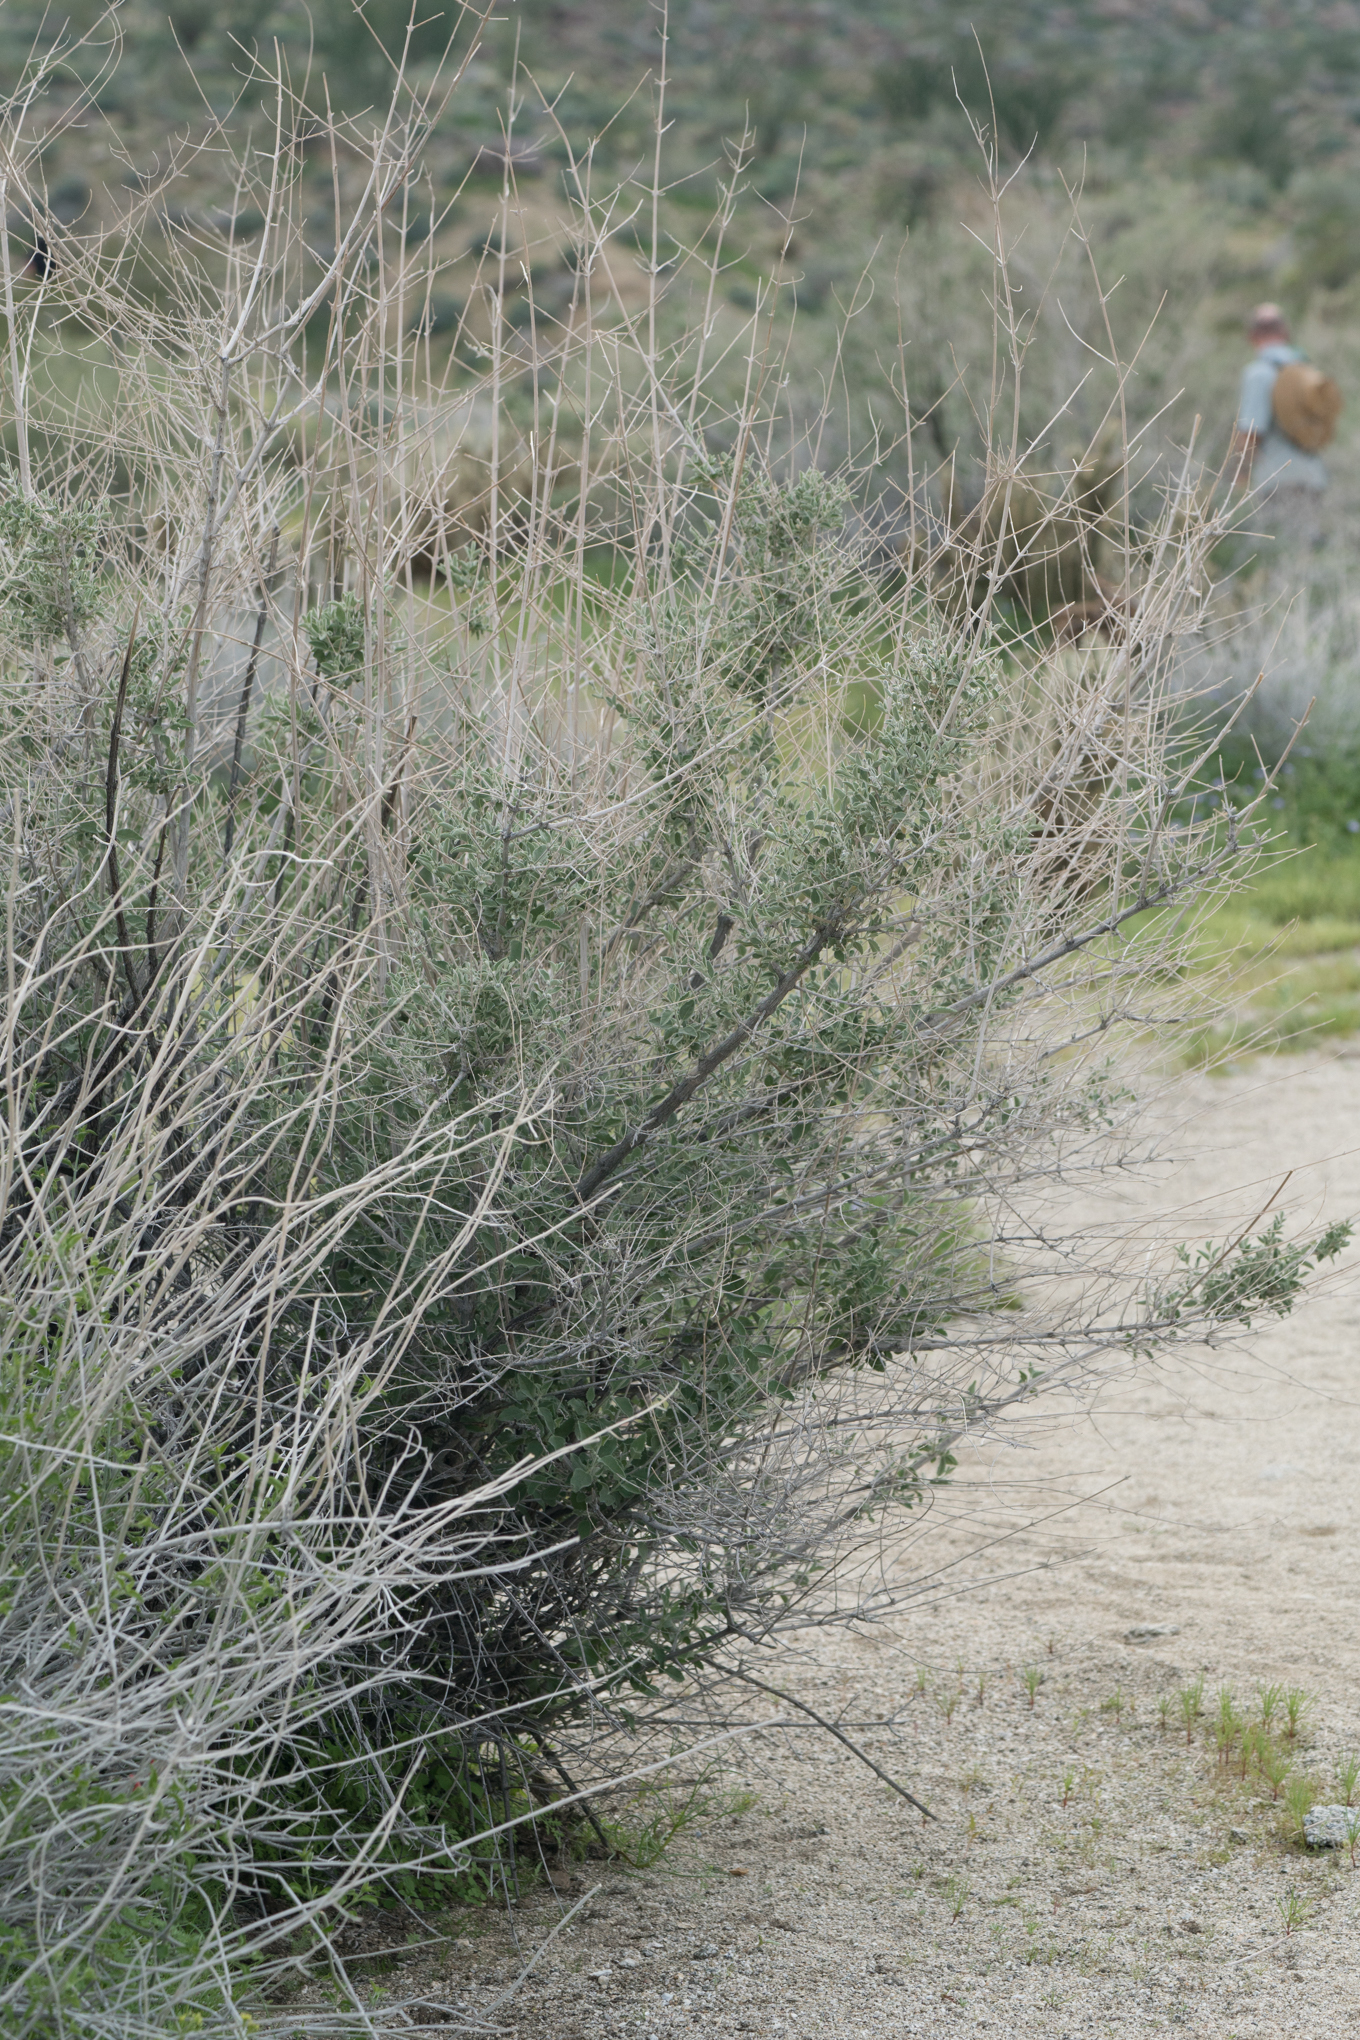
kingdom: Plantae
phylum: Tracheophyta
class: Magnoliopsida
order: Lamiales
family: Lamiaceae
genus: Condea
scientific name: Condea emoryi
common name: Chia
